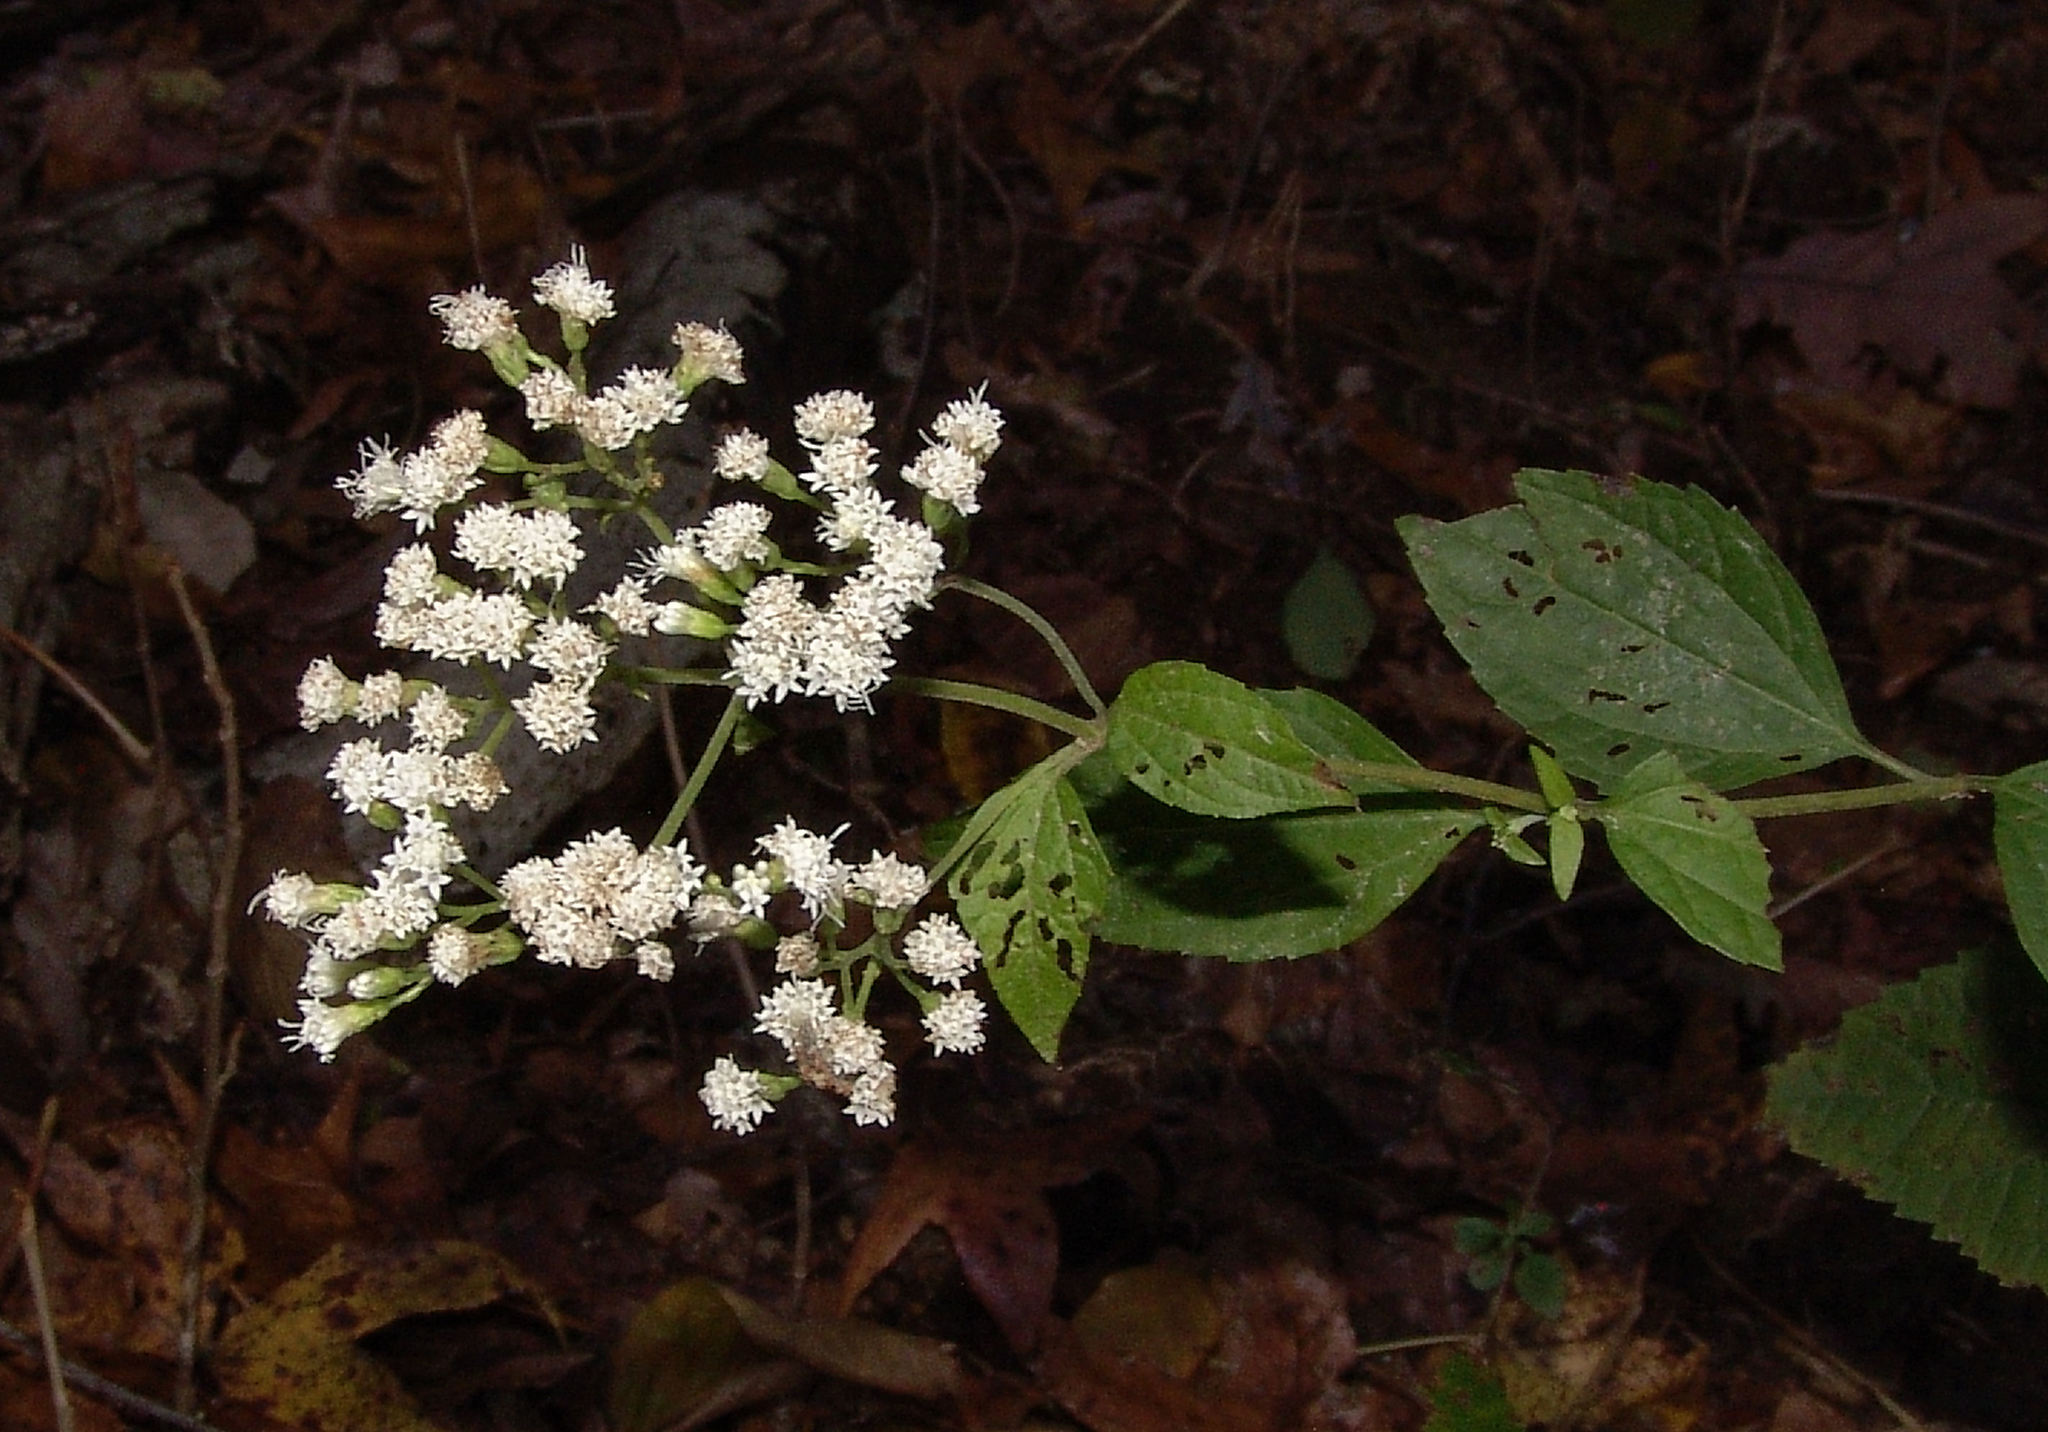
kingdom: Plantae
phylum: Tracheophyta
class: Magnoliopsida
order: Asterales
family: Asteraceae
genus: Ageratina
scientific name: Ageratina altissima
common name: White snakeroot
